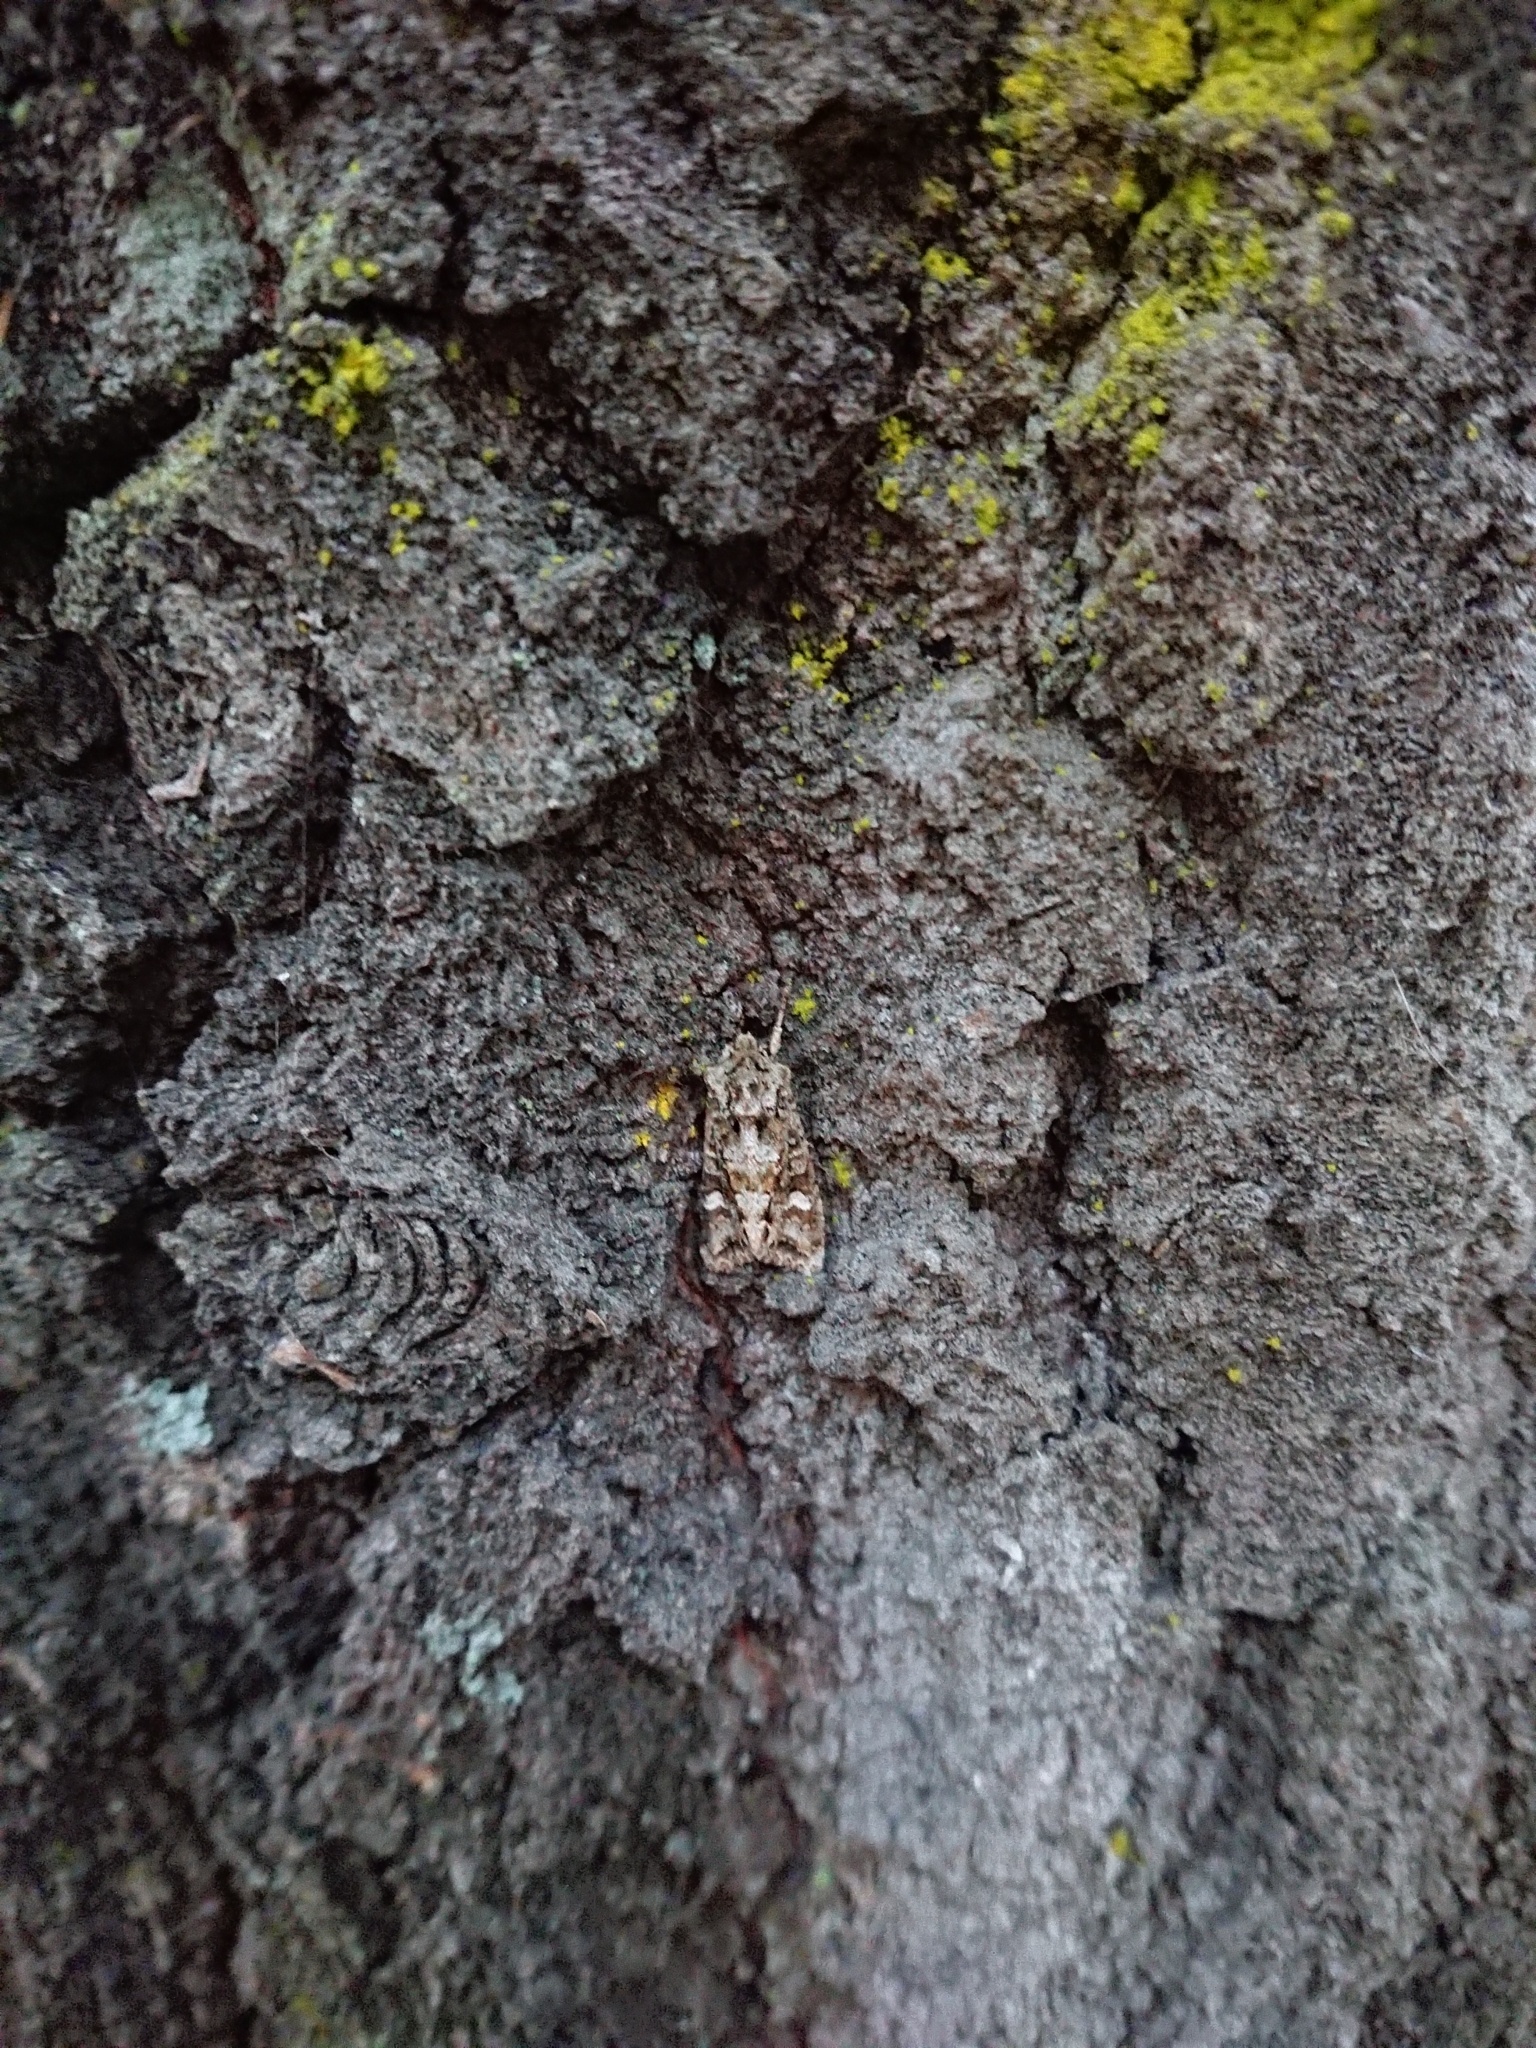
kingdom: Animalia
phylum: Arthropoda
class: Insecta
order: Lepidoptera
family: Noctuidae
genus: Ichneutica
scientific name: Ichneutica
